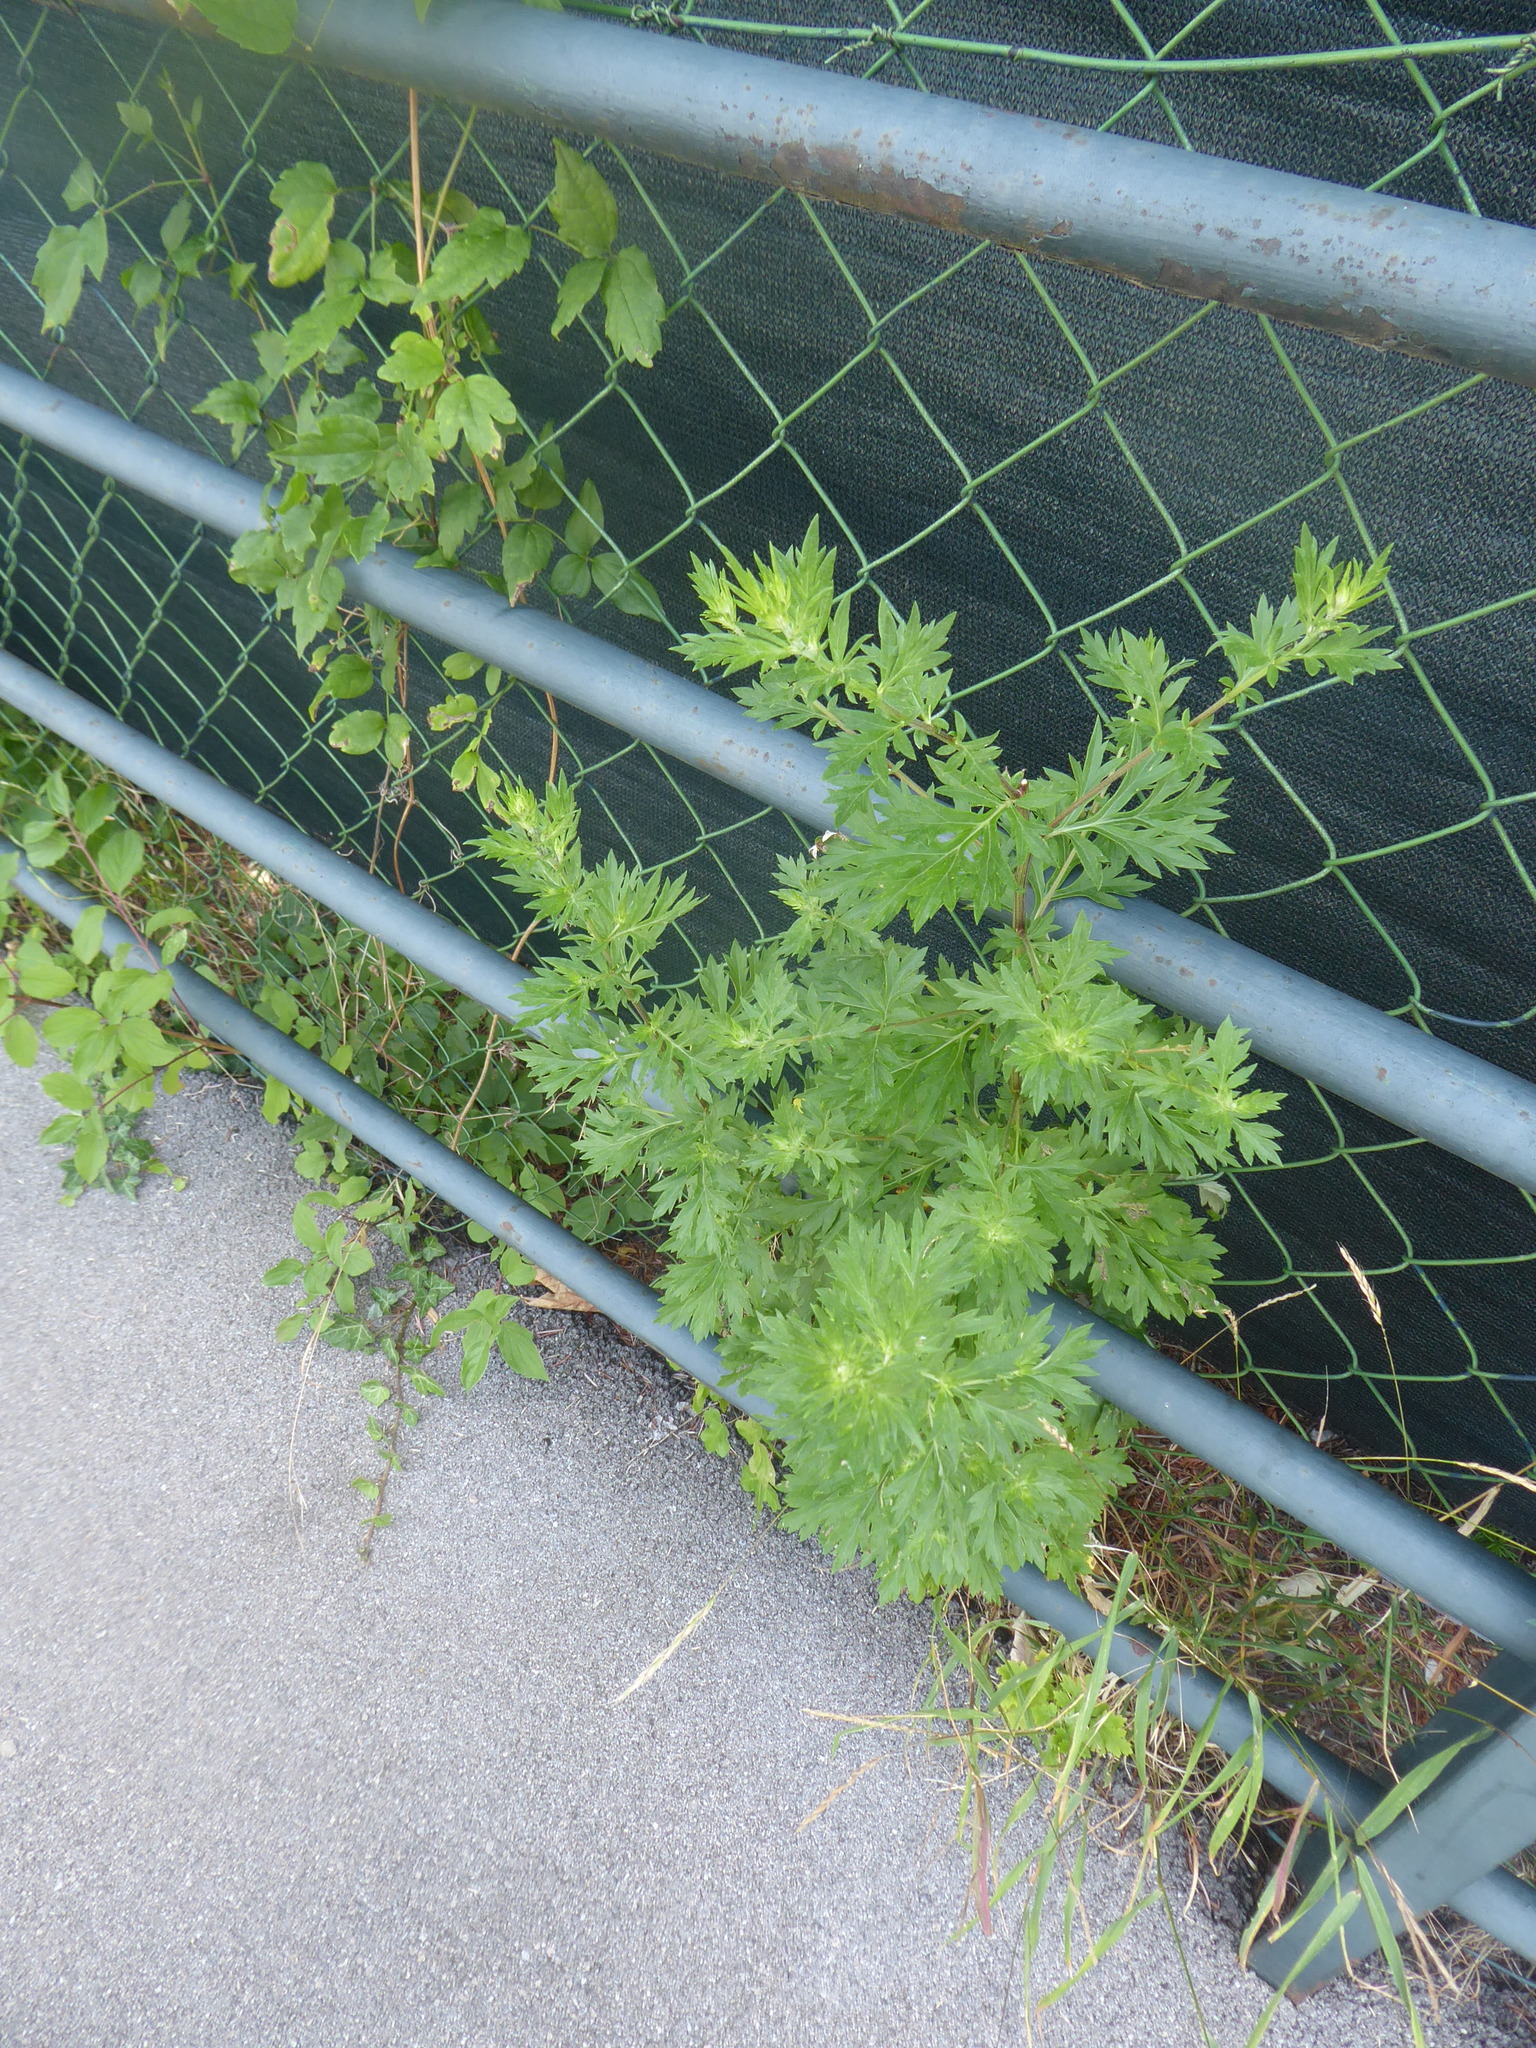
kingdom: Plantae
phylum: Tracheophyta
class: Magnoliopsida
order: Asterales
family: Asteraceae
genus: Artemisia
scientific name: Artemisia vulgaris
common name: Mugwort
